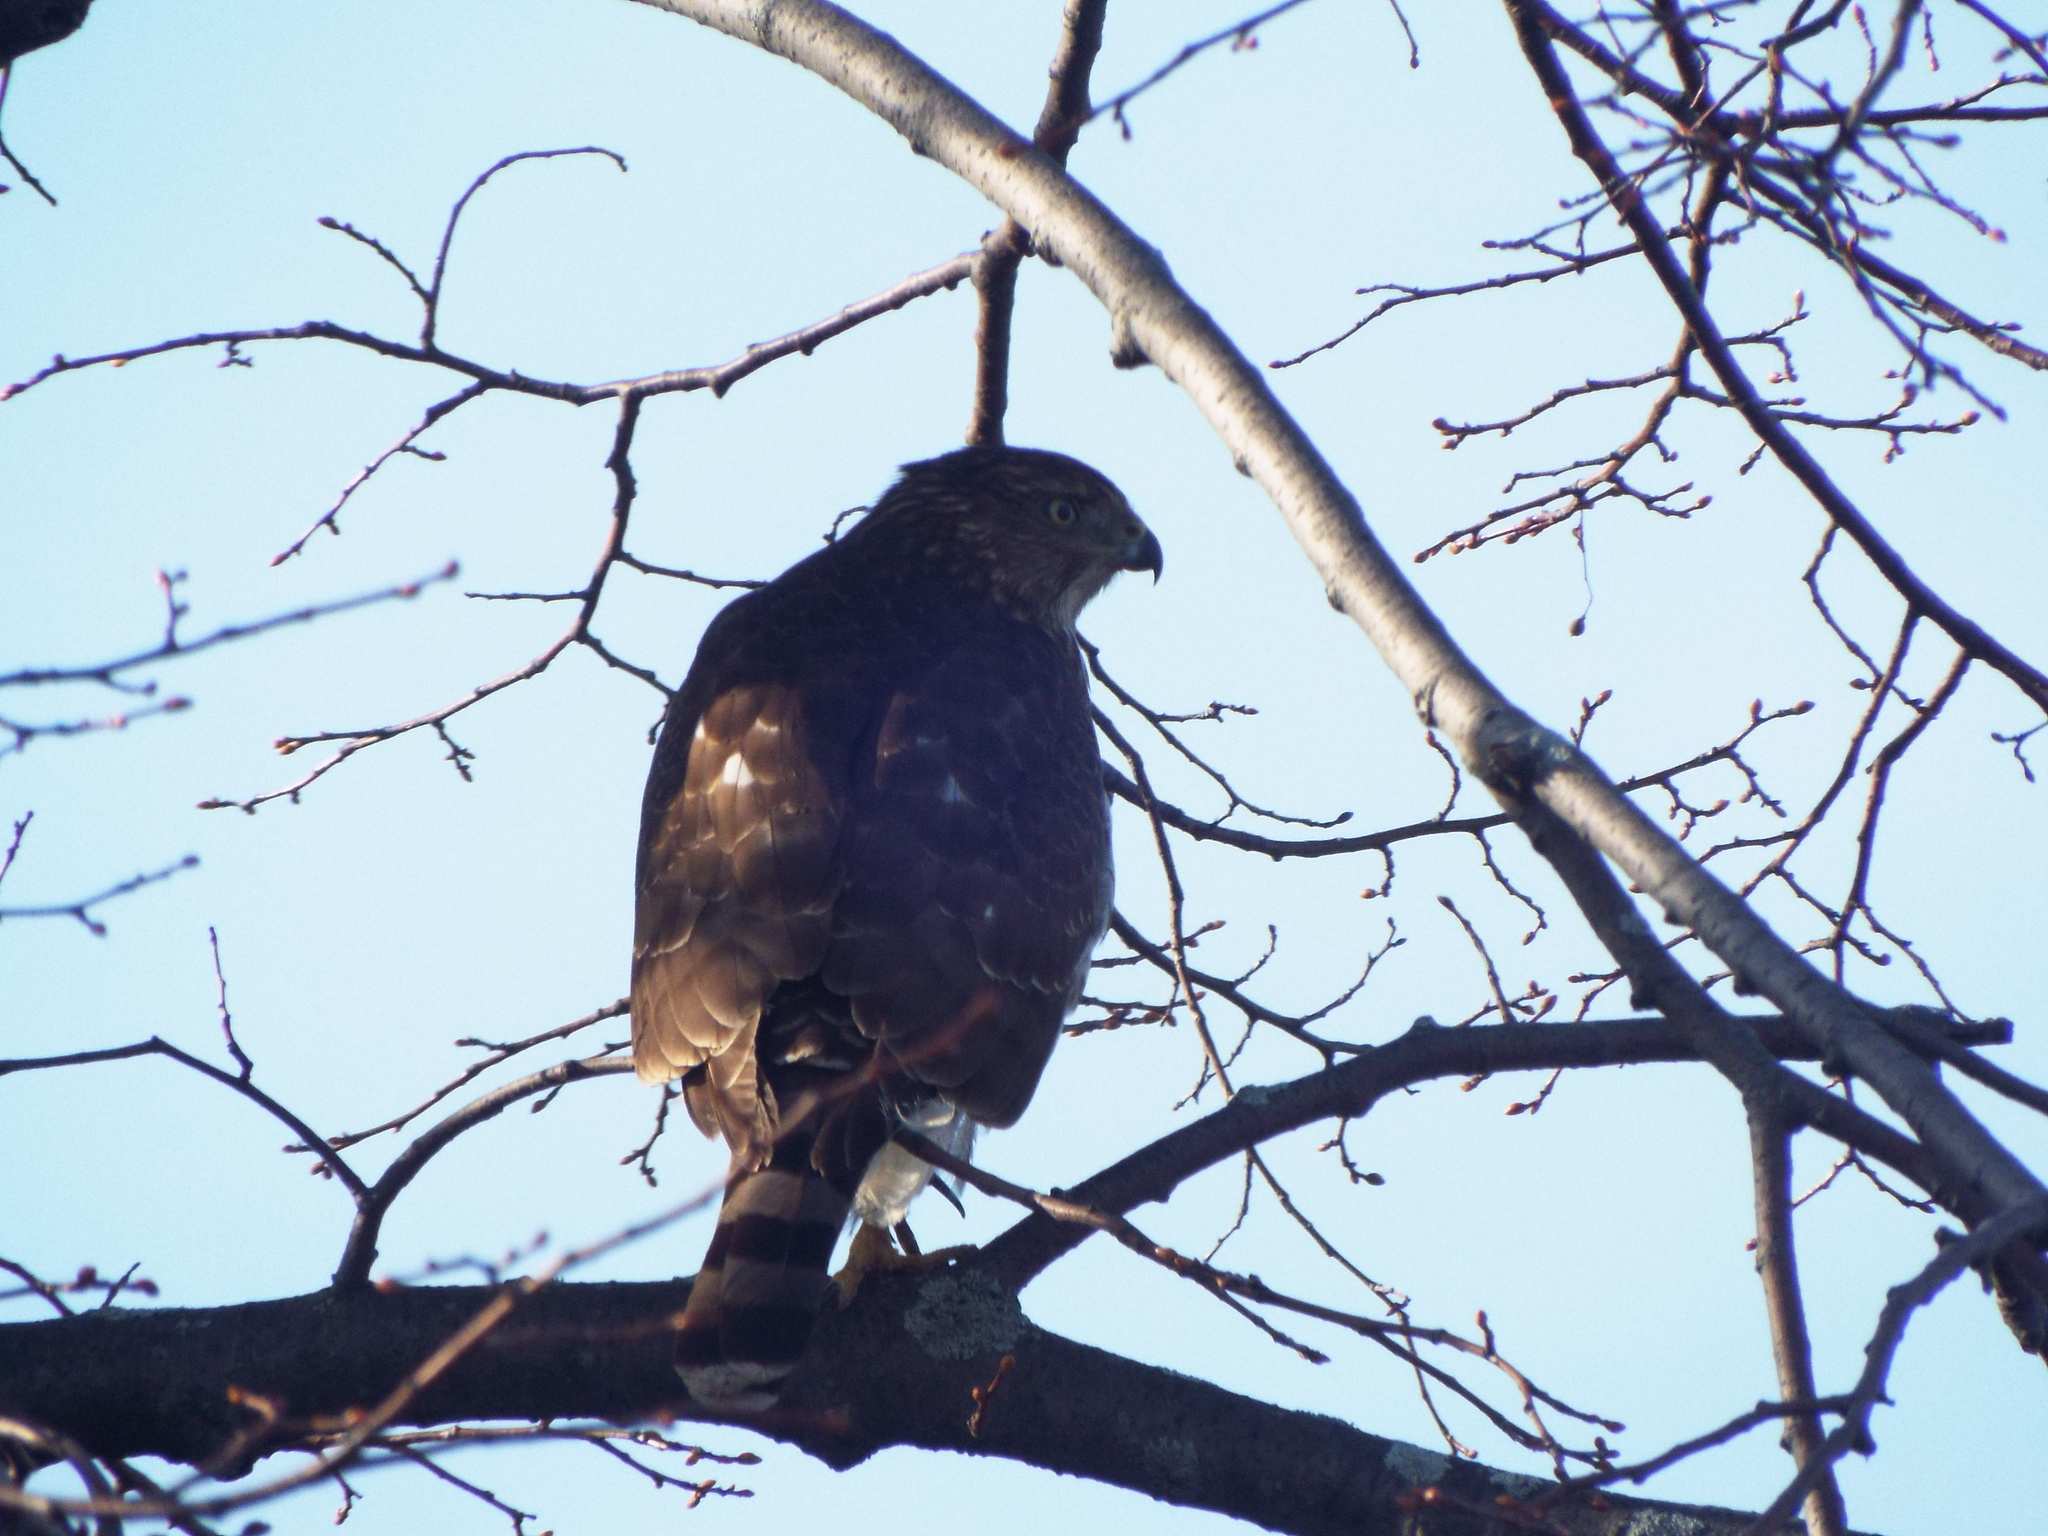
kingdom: Animalia
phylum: Chordata
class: Aves
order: Accipitriformes
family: Accipitridae
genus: Accipiter
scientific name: Accipiter cooperii
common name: Cooper's hawk
